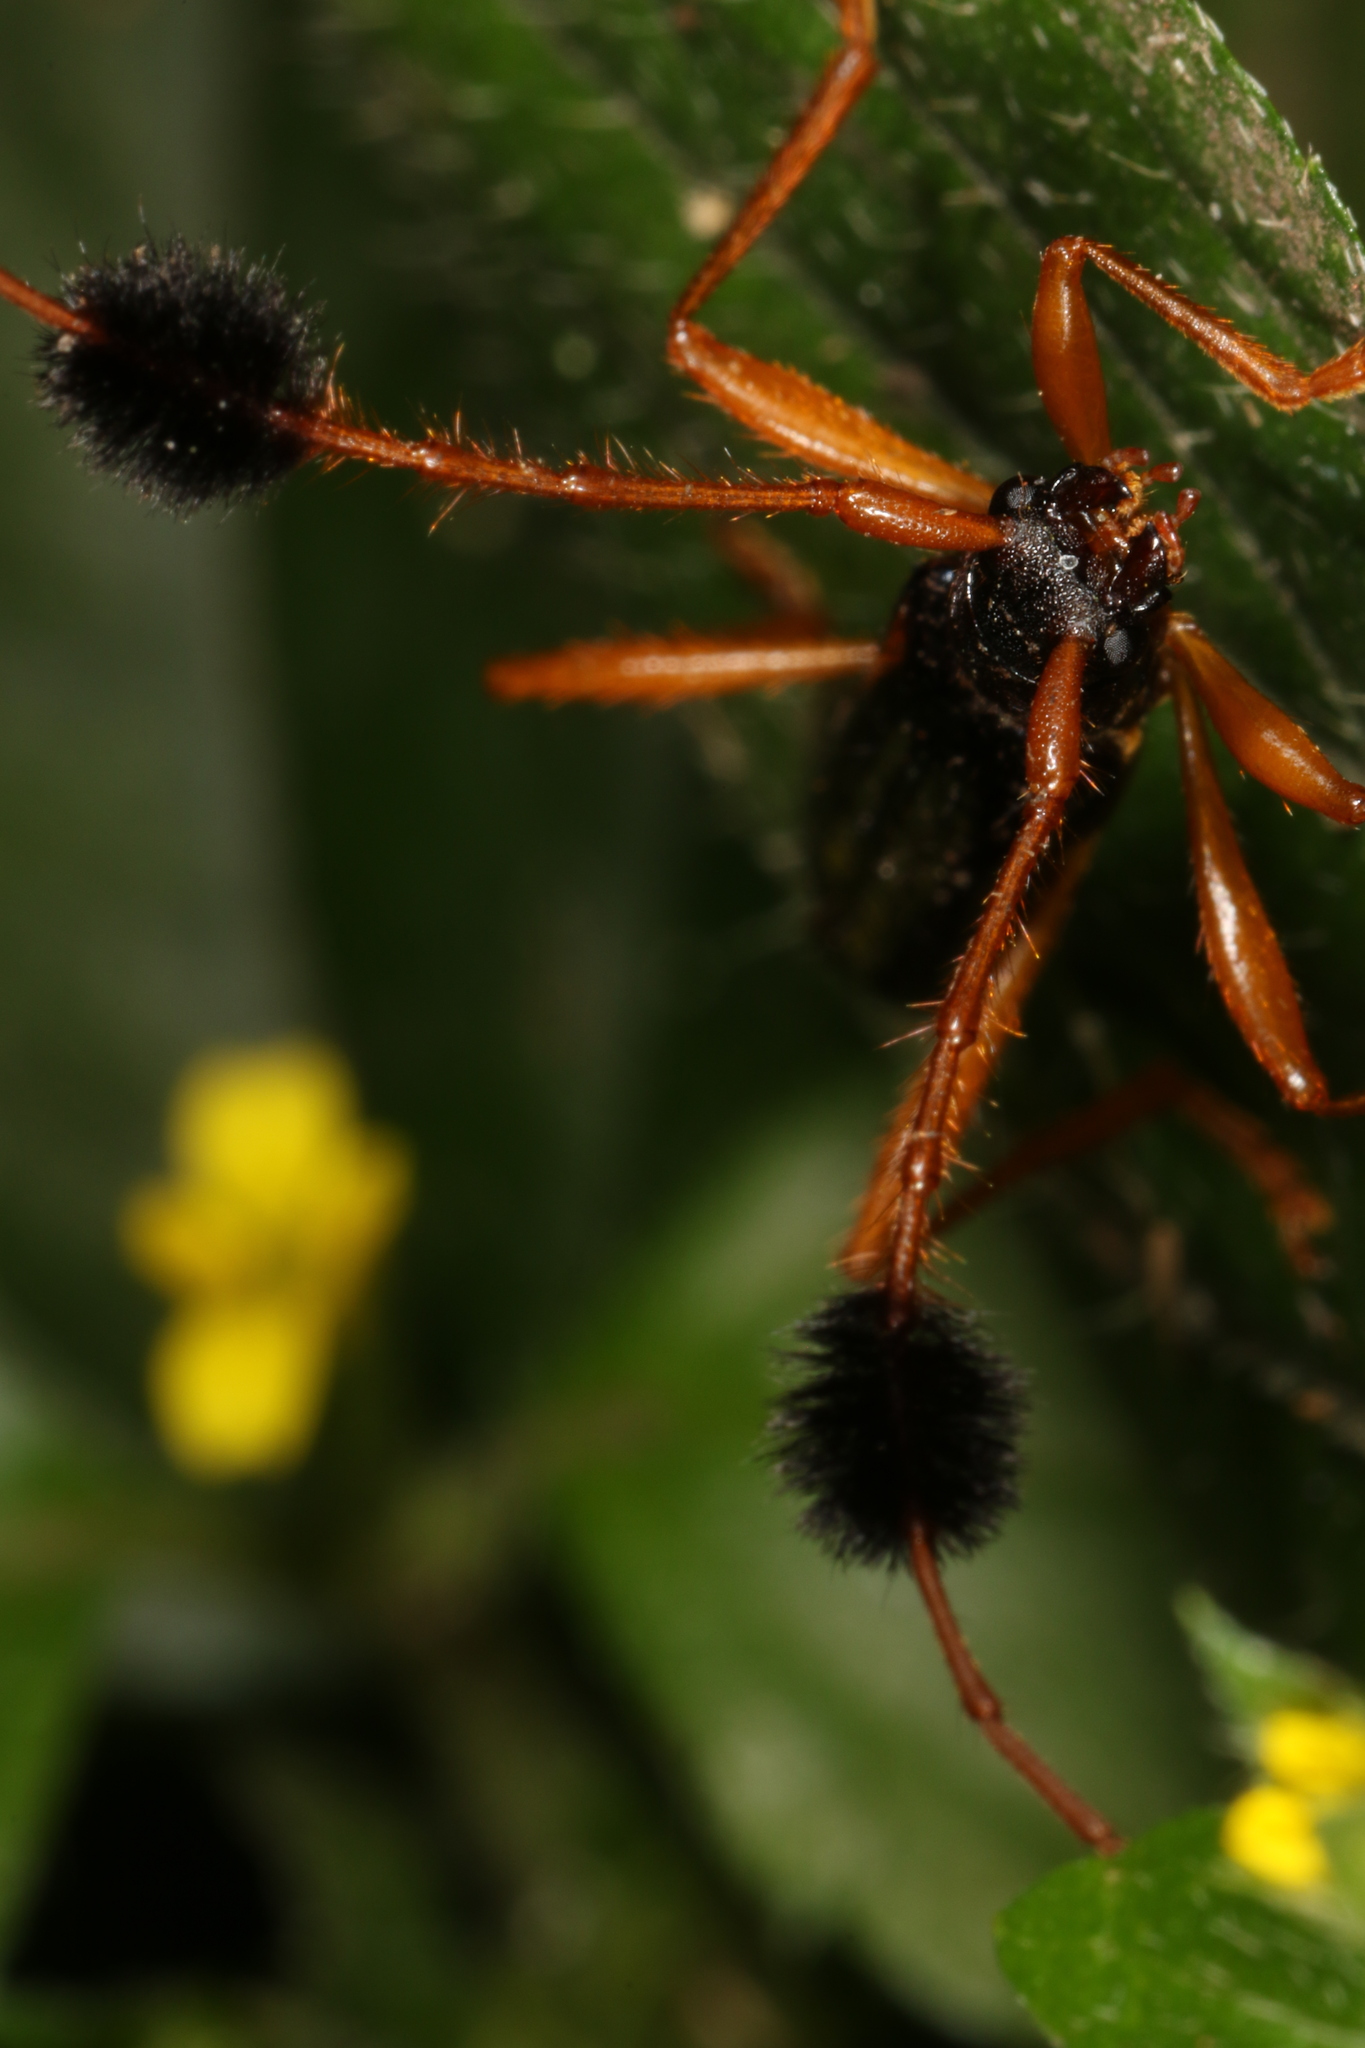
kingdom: Animalia
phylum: Arthropoda
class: Insecta
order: Coleoptera
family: Cerambycidae
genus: Paromoeocerus
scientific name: Paromoeocerus scabricollis
